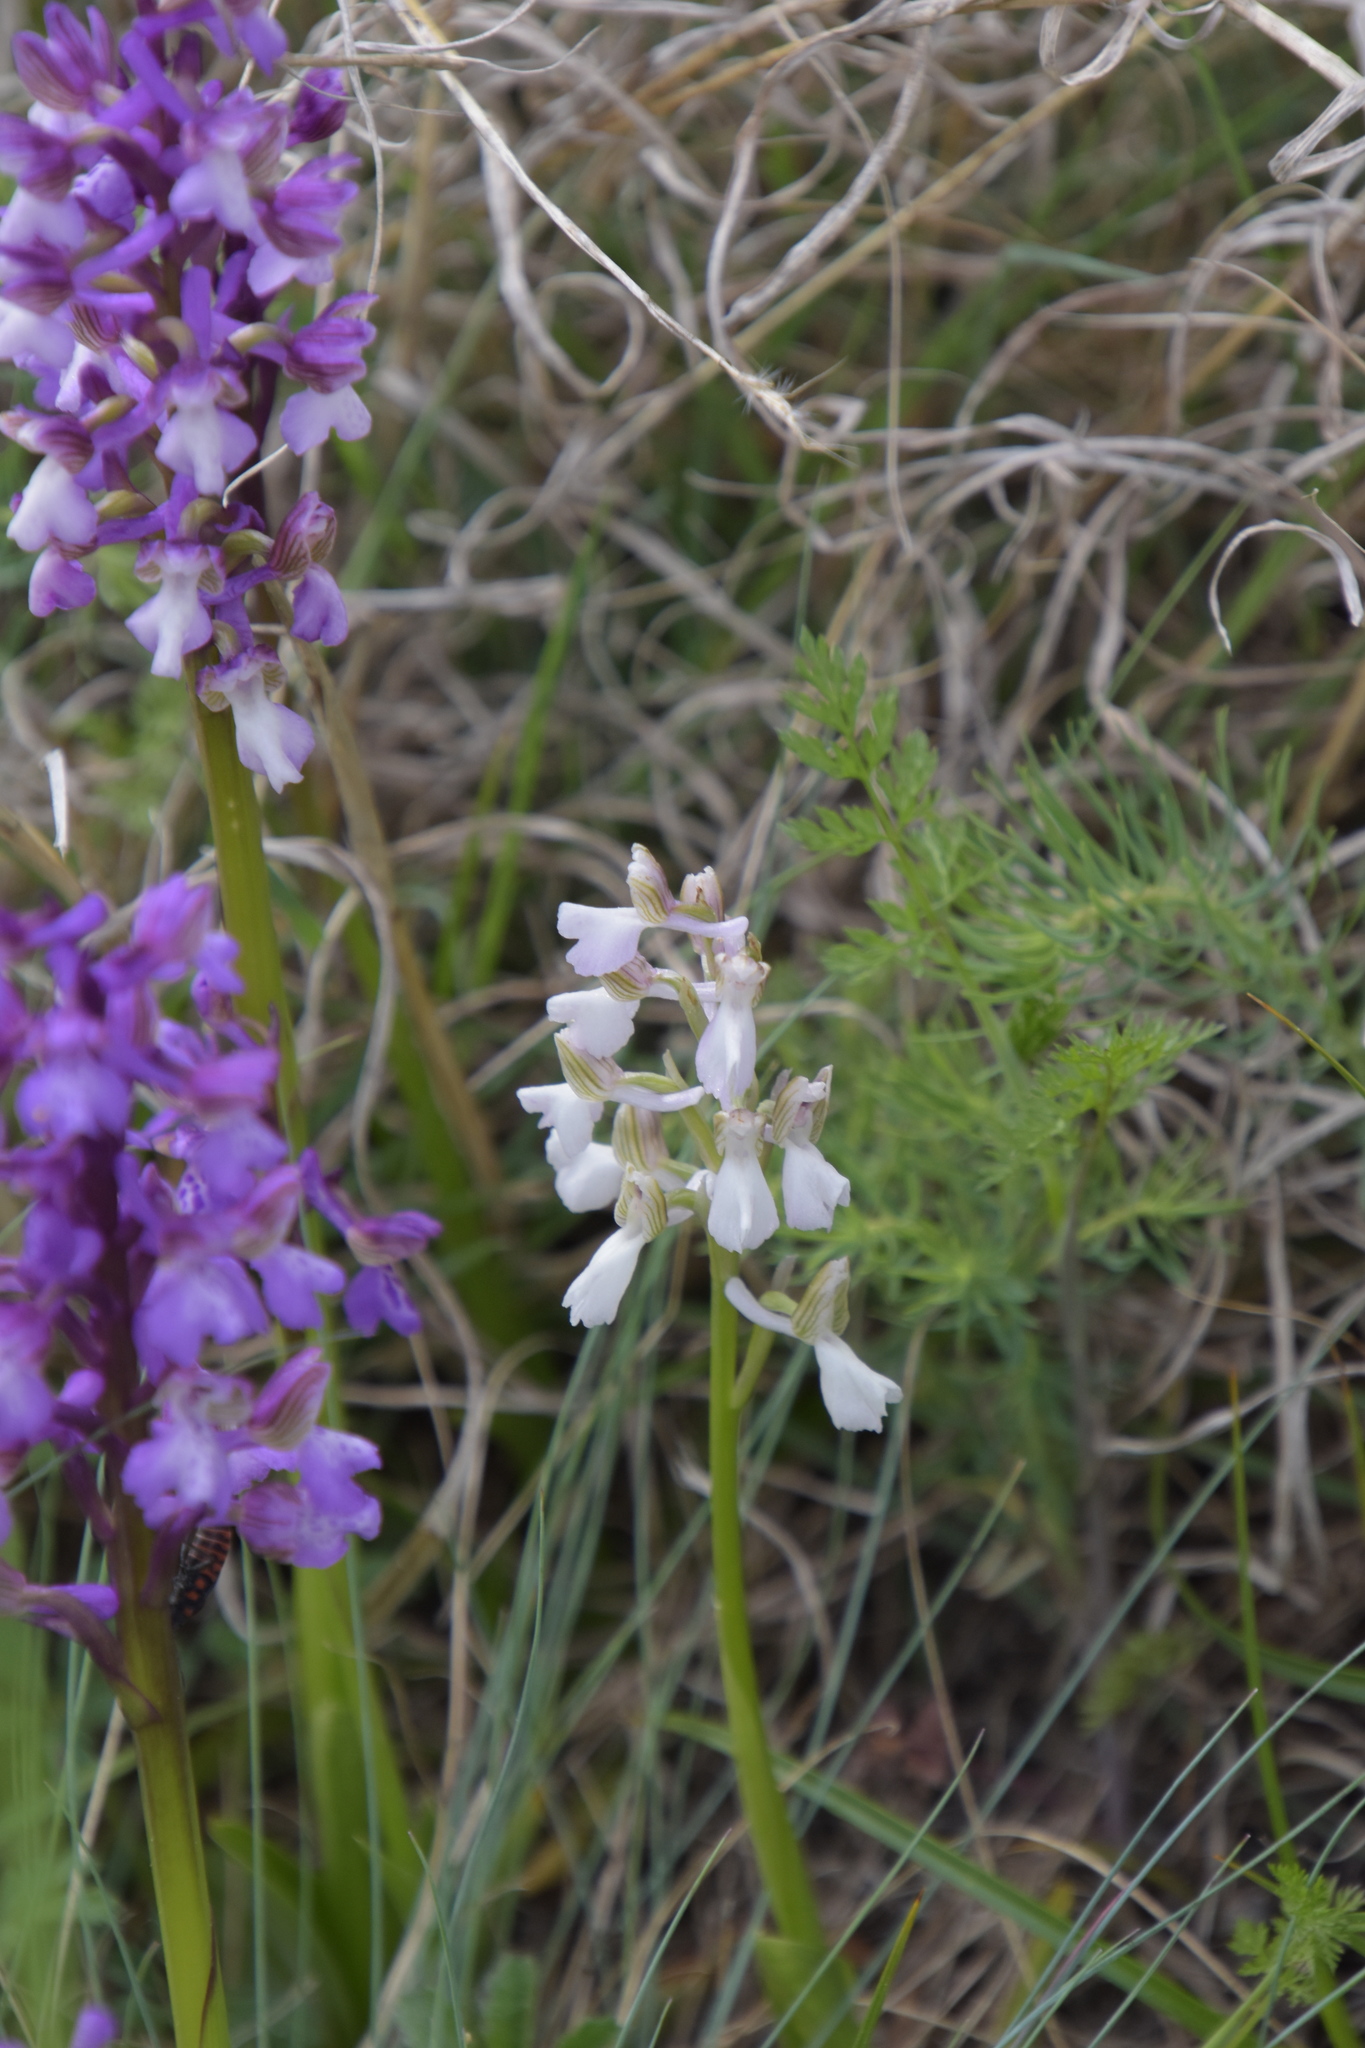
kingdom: Plantae
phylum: Tracheophyta
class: Liliopsida
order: Asparagales
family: Orchidaceae
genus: Anacamptis
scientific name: Anacamptis morio
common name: Green-winged orchid
